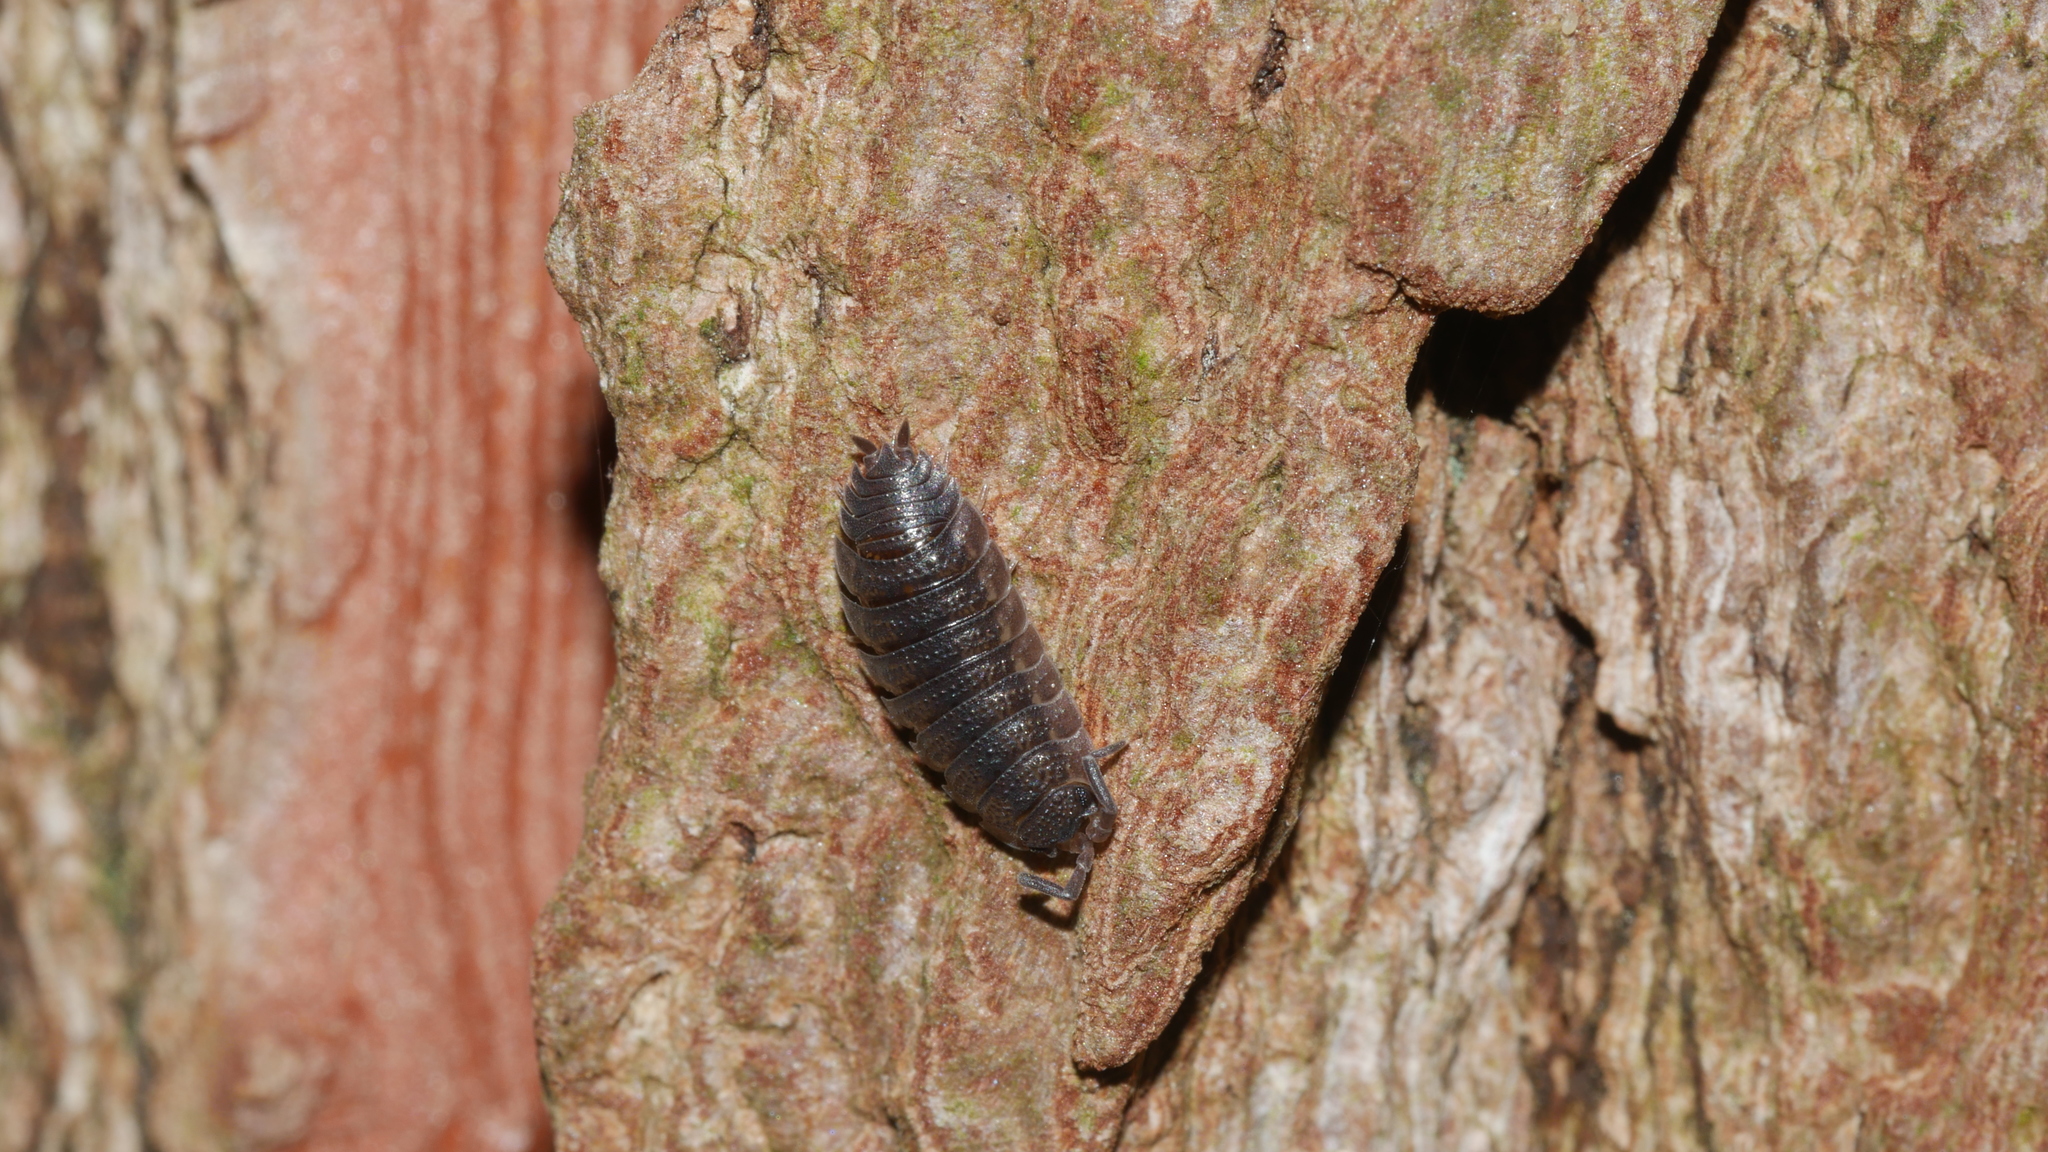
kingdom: Animalia
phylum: Arthropoda
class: Malacostraca
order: Isopoda
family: Porcellionidae
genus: Porcellio
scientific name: Porcellio scaber
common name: Common rough woodlouse
